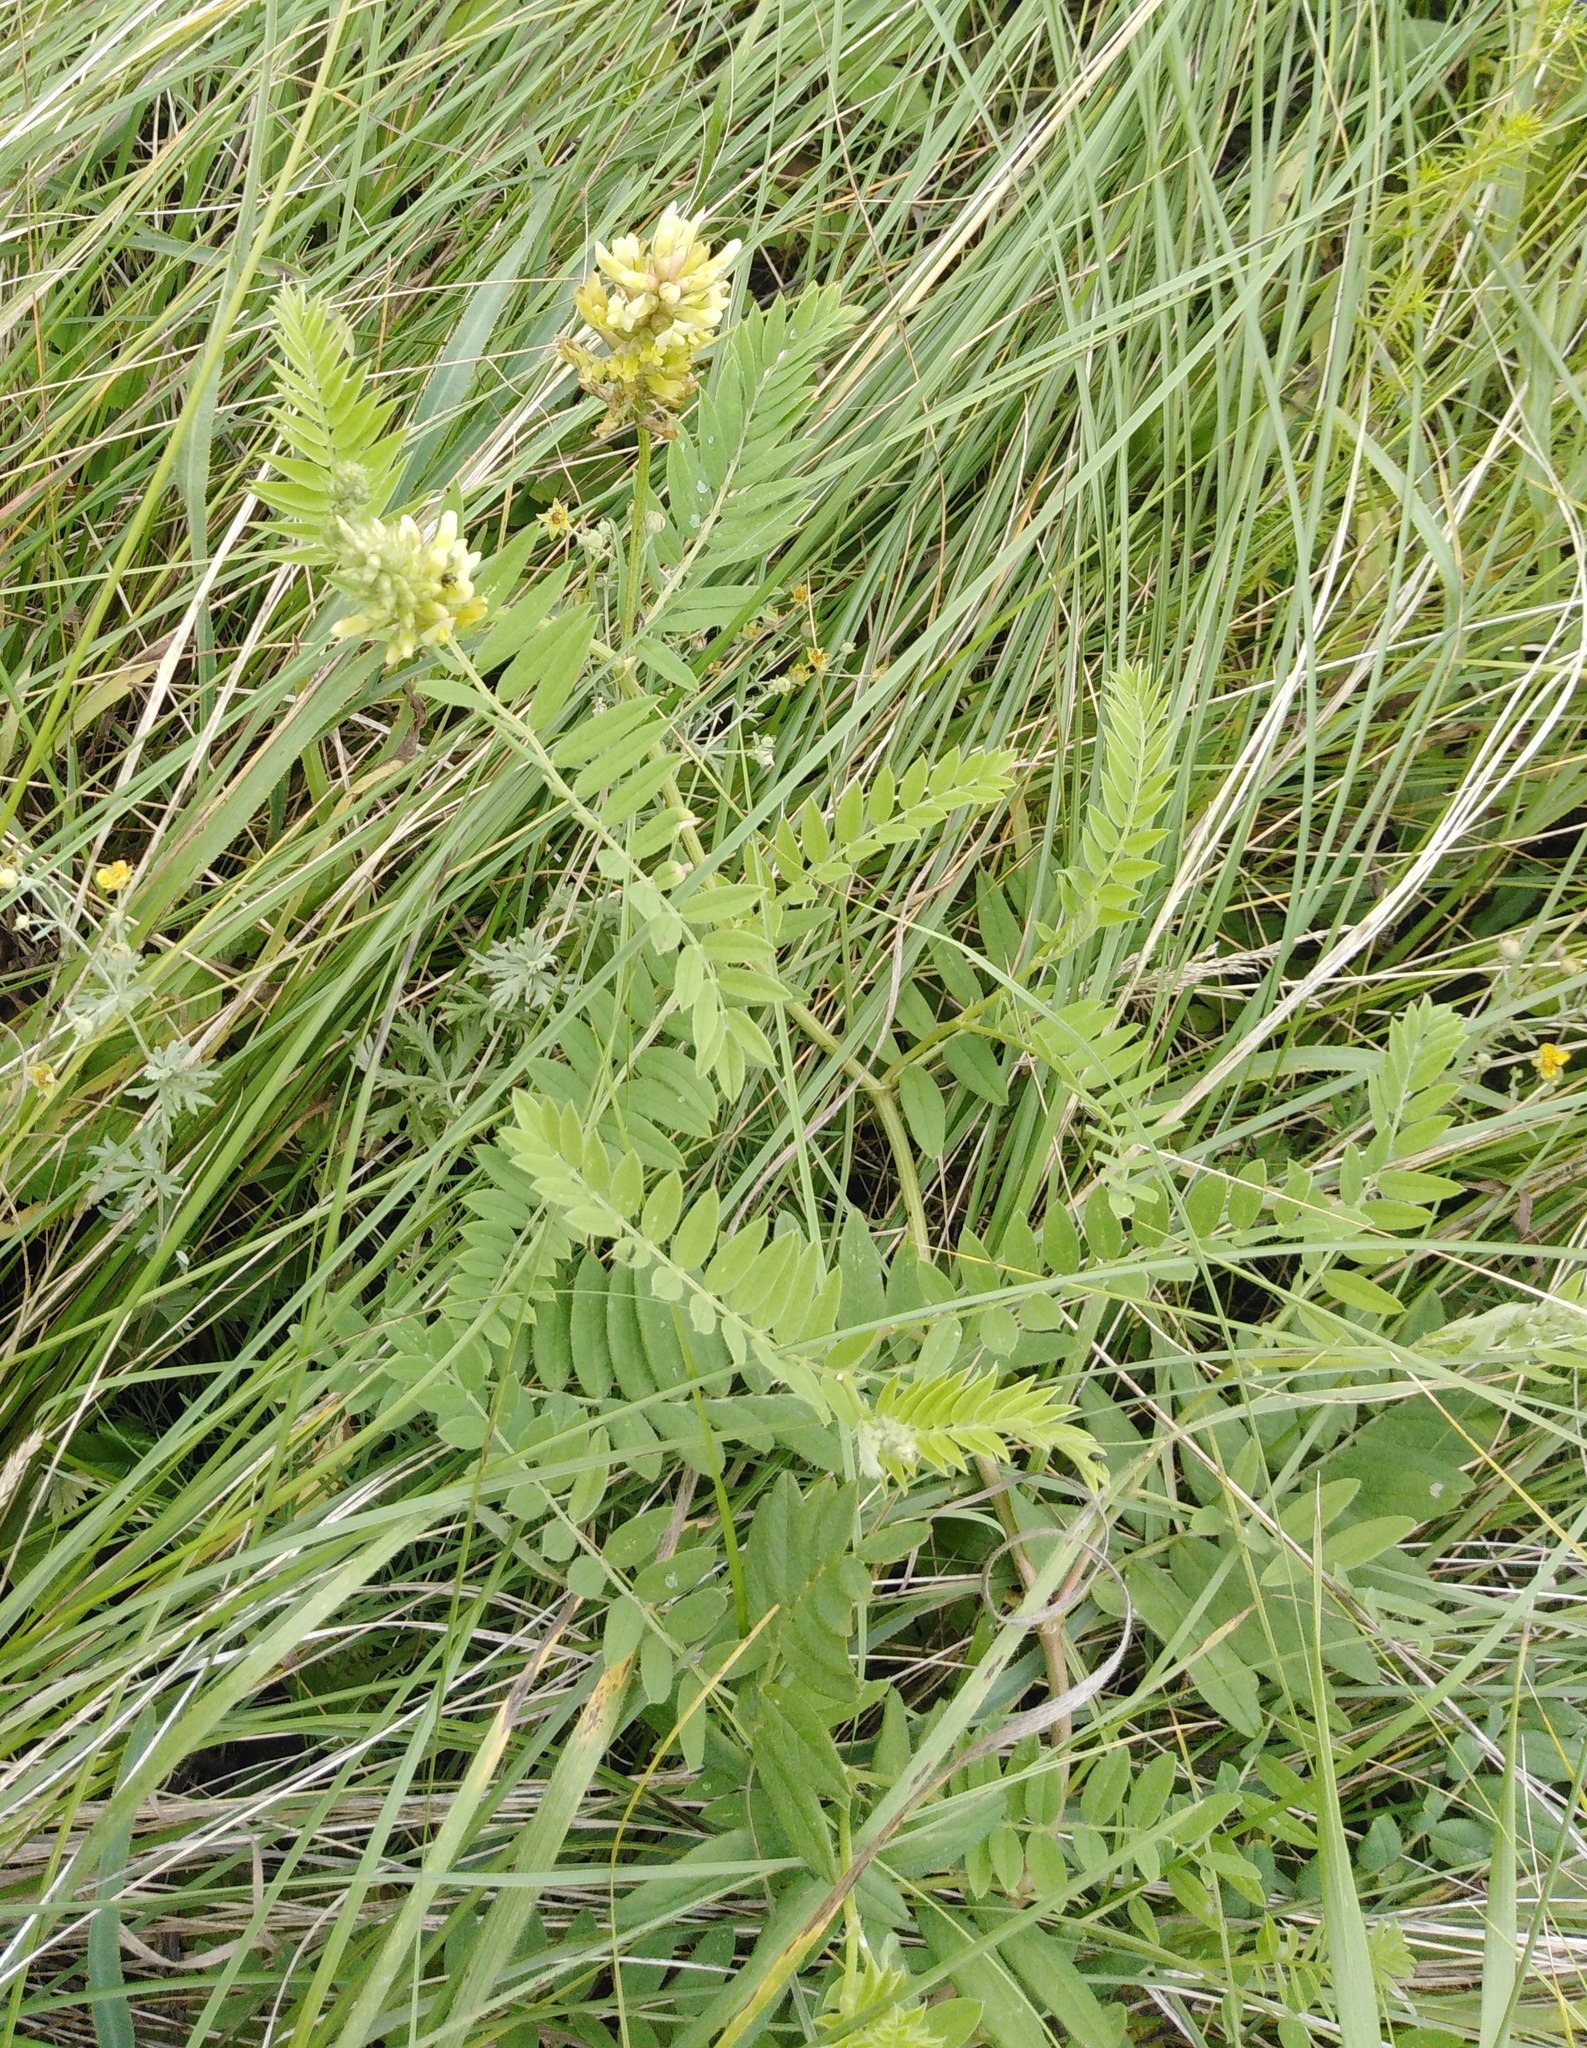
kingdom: Plantae
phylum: Tracheophyta
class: Magnoliopsida
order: Fabales
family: Fabaceae
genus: Astragalus
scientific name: Astragalus cicer
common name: Chick-pea milk-vetch
